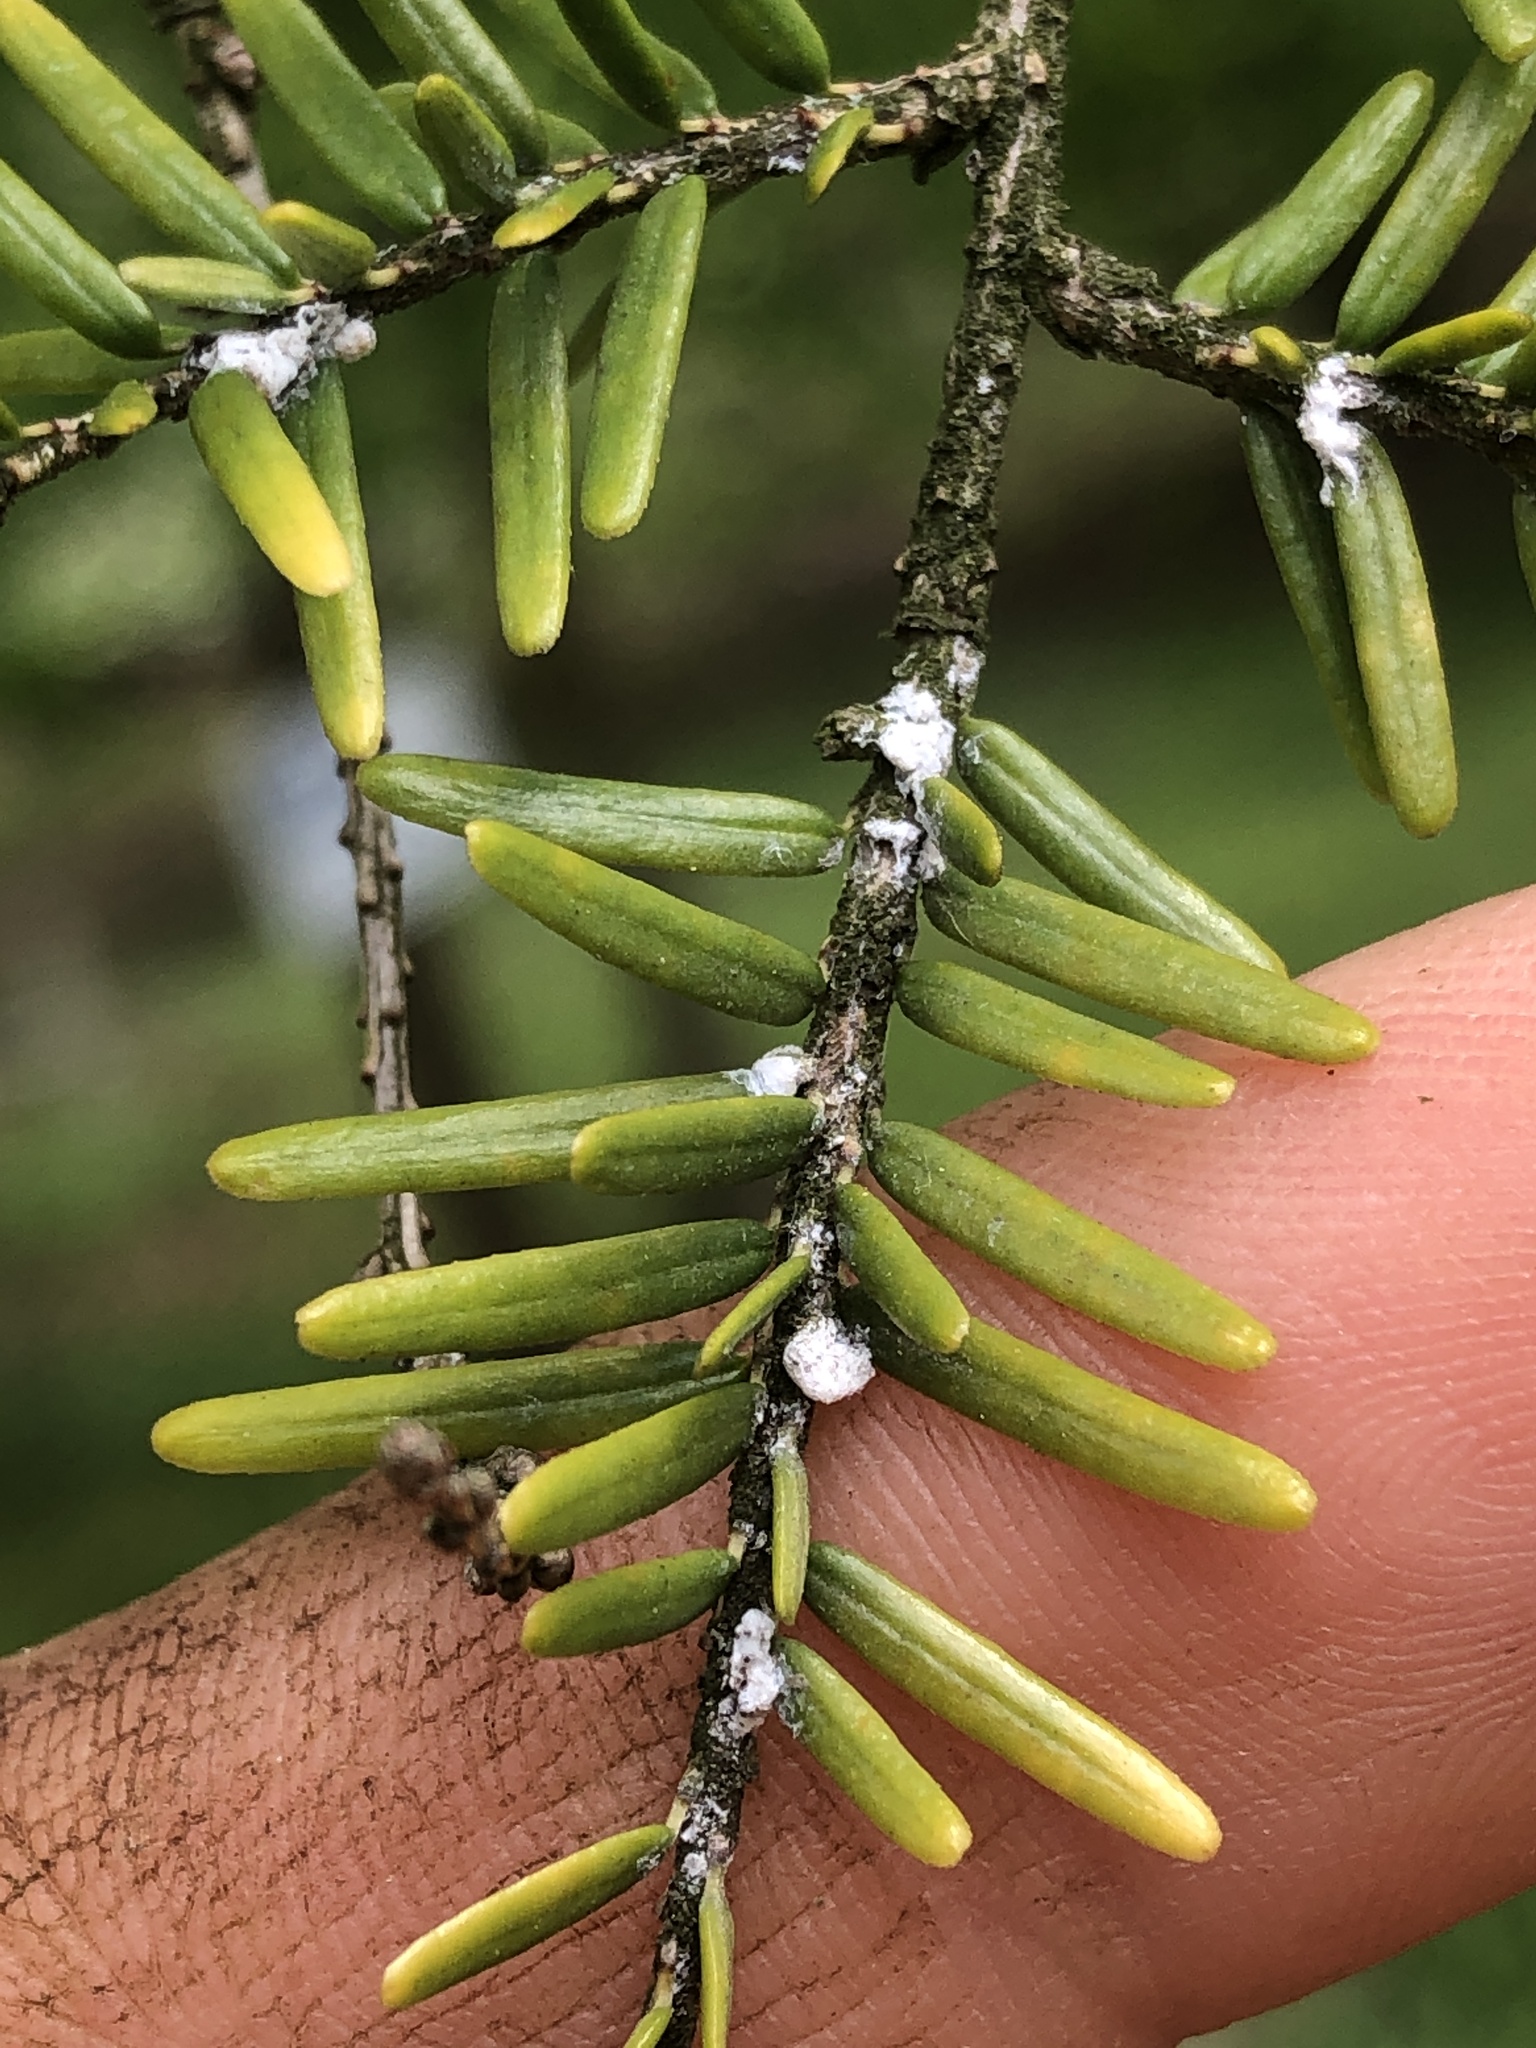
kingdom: Animalia
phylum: Arthropoda
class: Insecta
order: Hemiptera
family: Adelgidae
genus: Adelges
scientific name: Adelges tsugae
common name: Hemlock woolly adelgid
